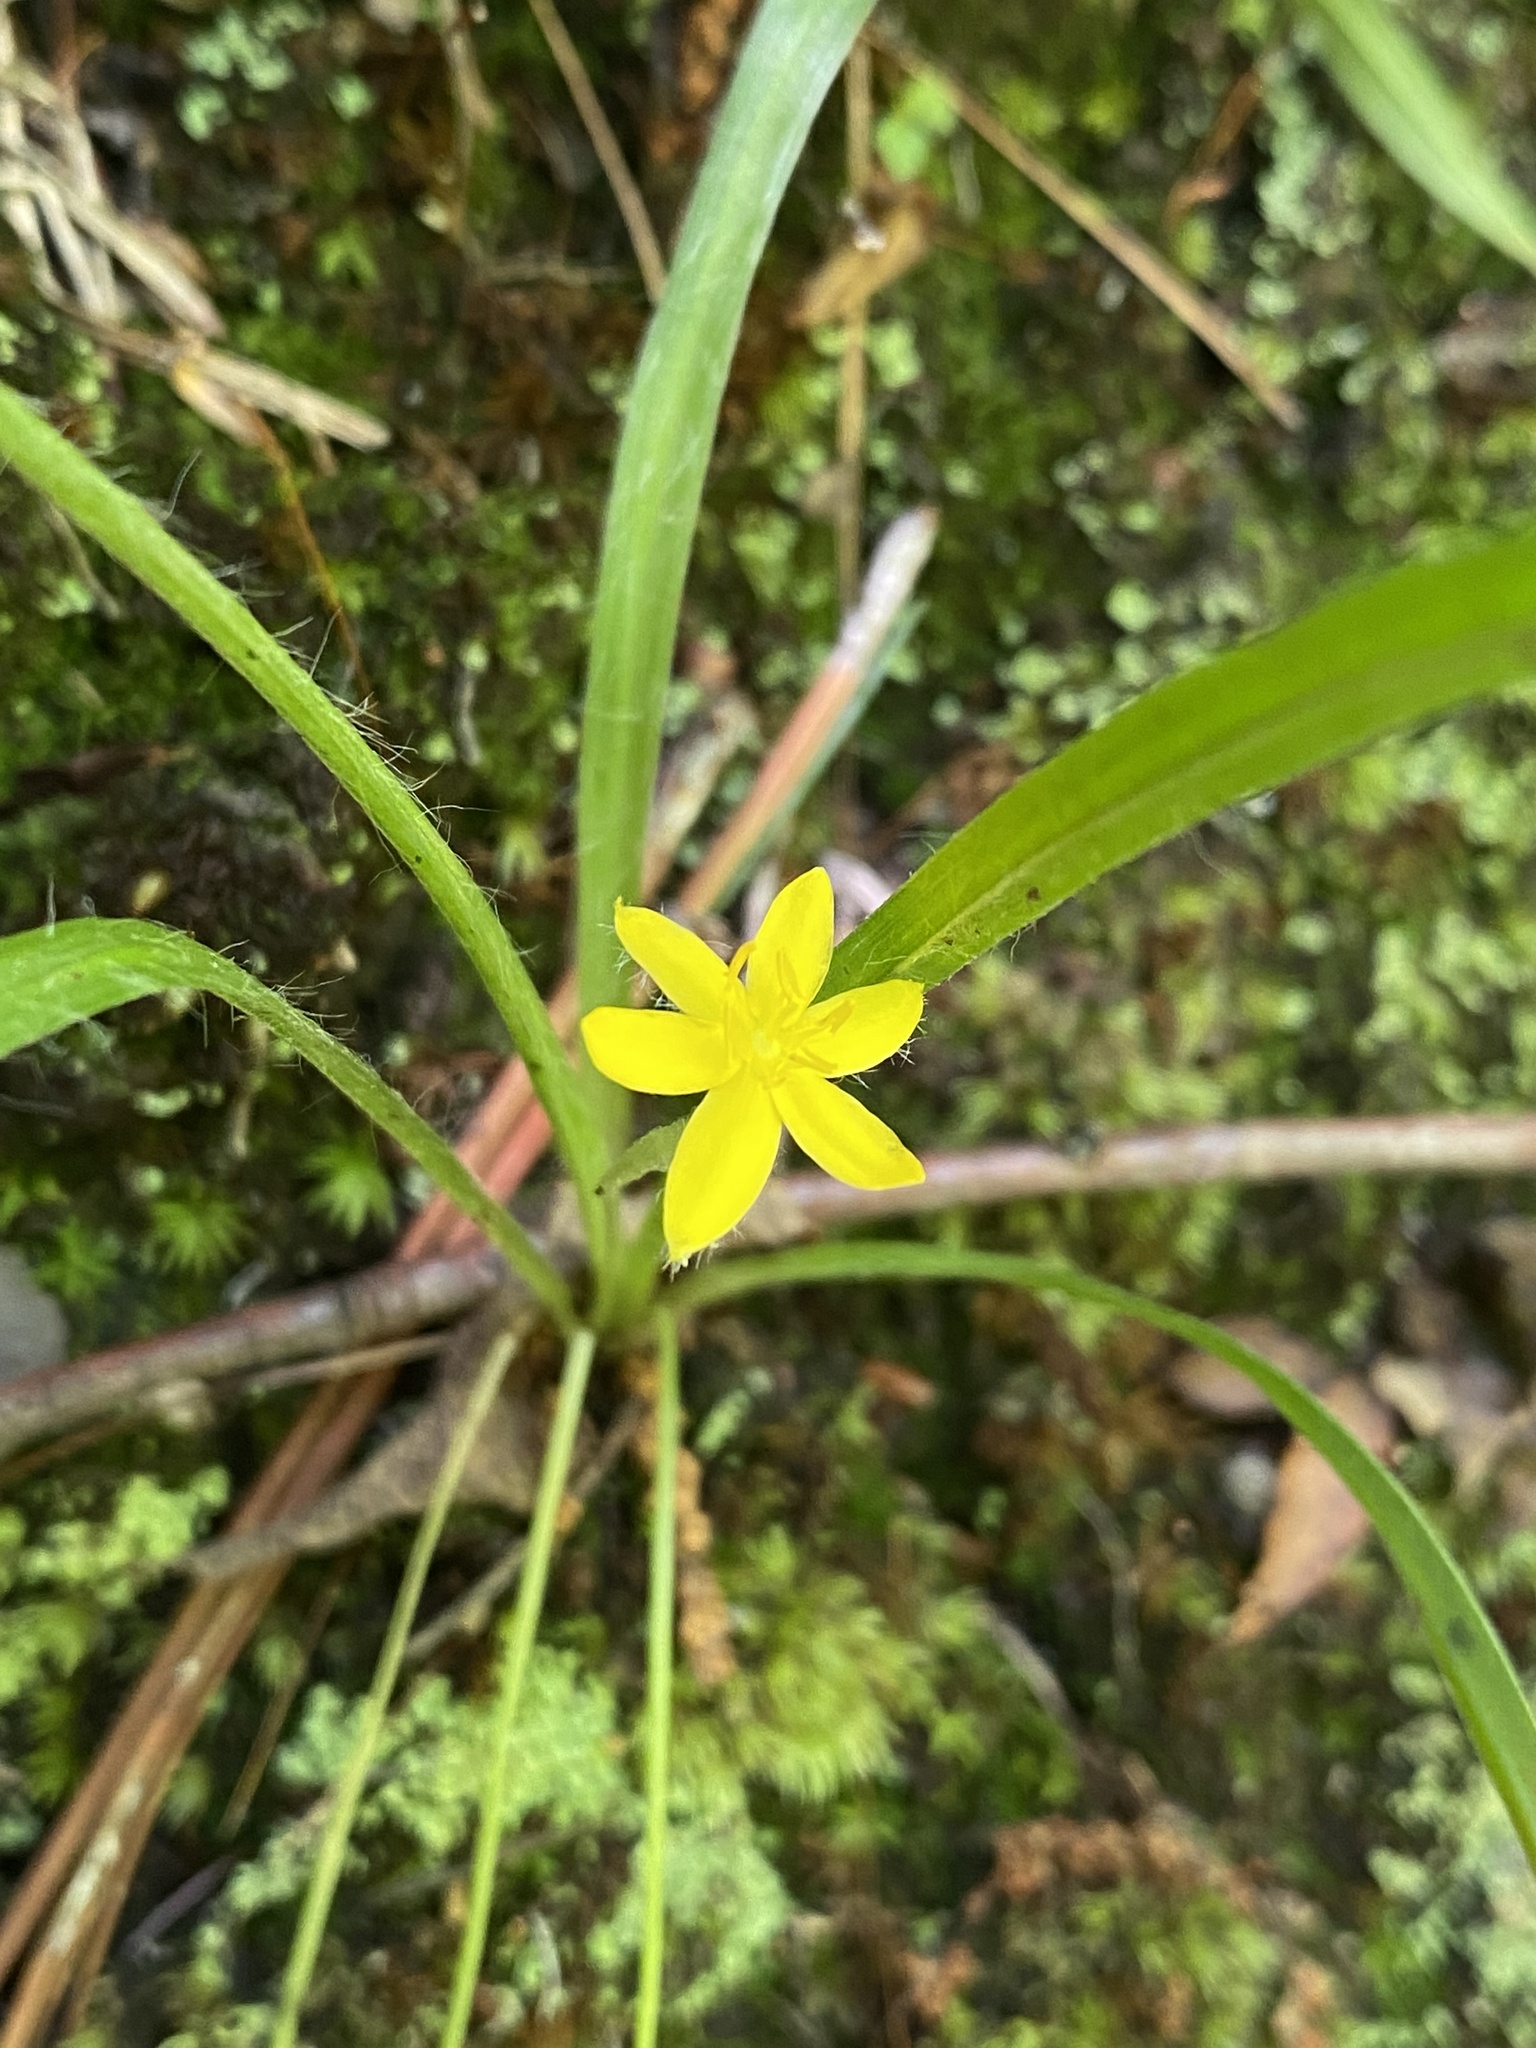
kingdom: Plantae
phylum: Tracheophyta
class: Liliopsida
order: Asparagales
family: Hypoxidaceae
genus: Hypoxis
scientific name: Hypoxis hirsuta
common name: Common goldstar
